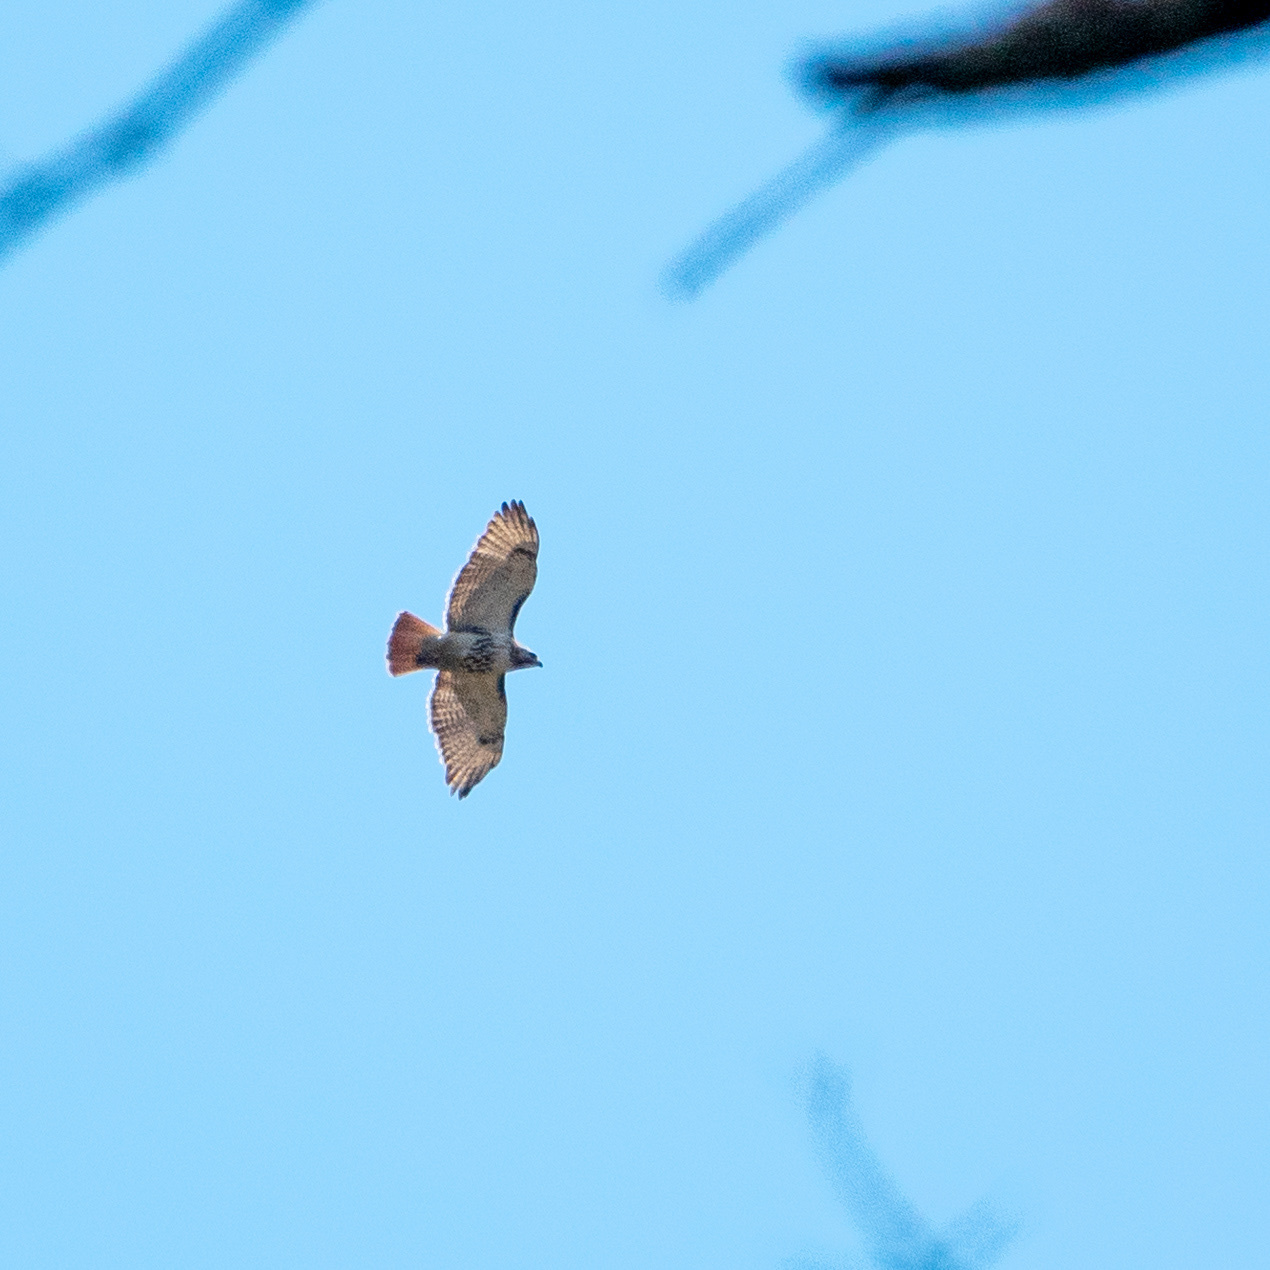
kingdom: Animalia
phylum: Chordata
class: Aves
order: Accipitriformes
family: Accipitridae
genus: Buteo
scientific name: Buteo jamaicensis
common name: Red-tailed hawk
